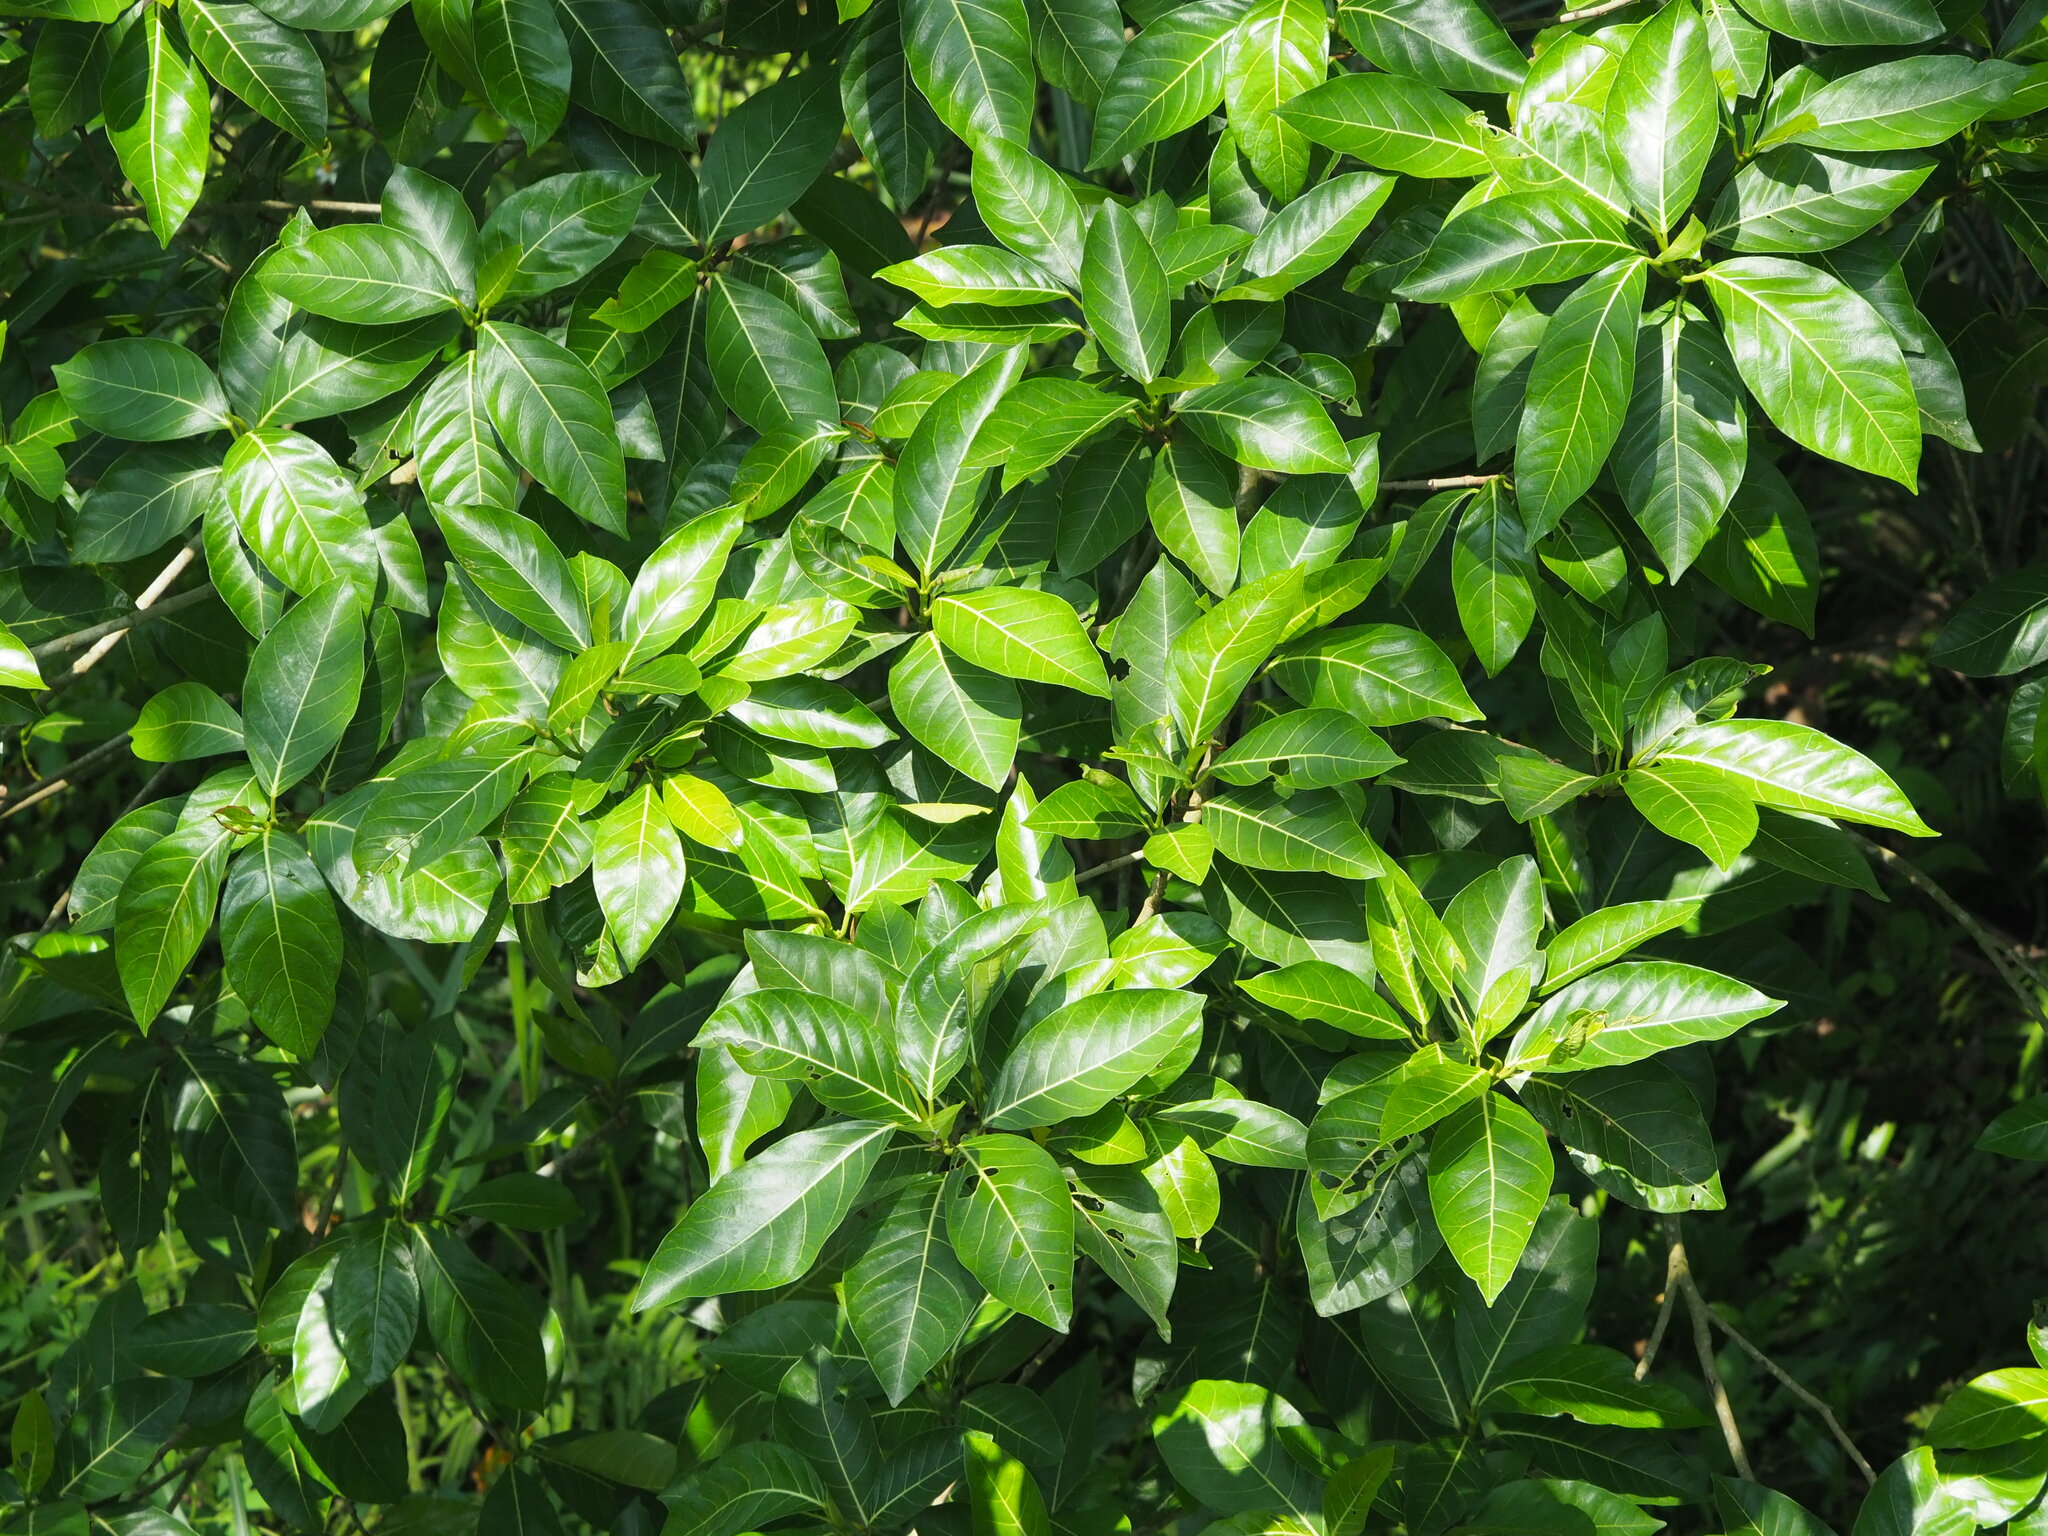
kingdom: Plantae
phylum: Tracheophyta
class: Magnoliopsida
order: Rosales
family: Moraceae
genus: Ficus
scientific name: Ficus septica
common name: Septic fig
